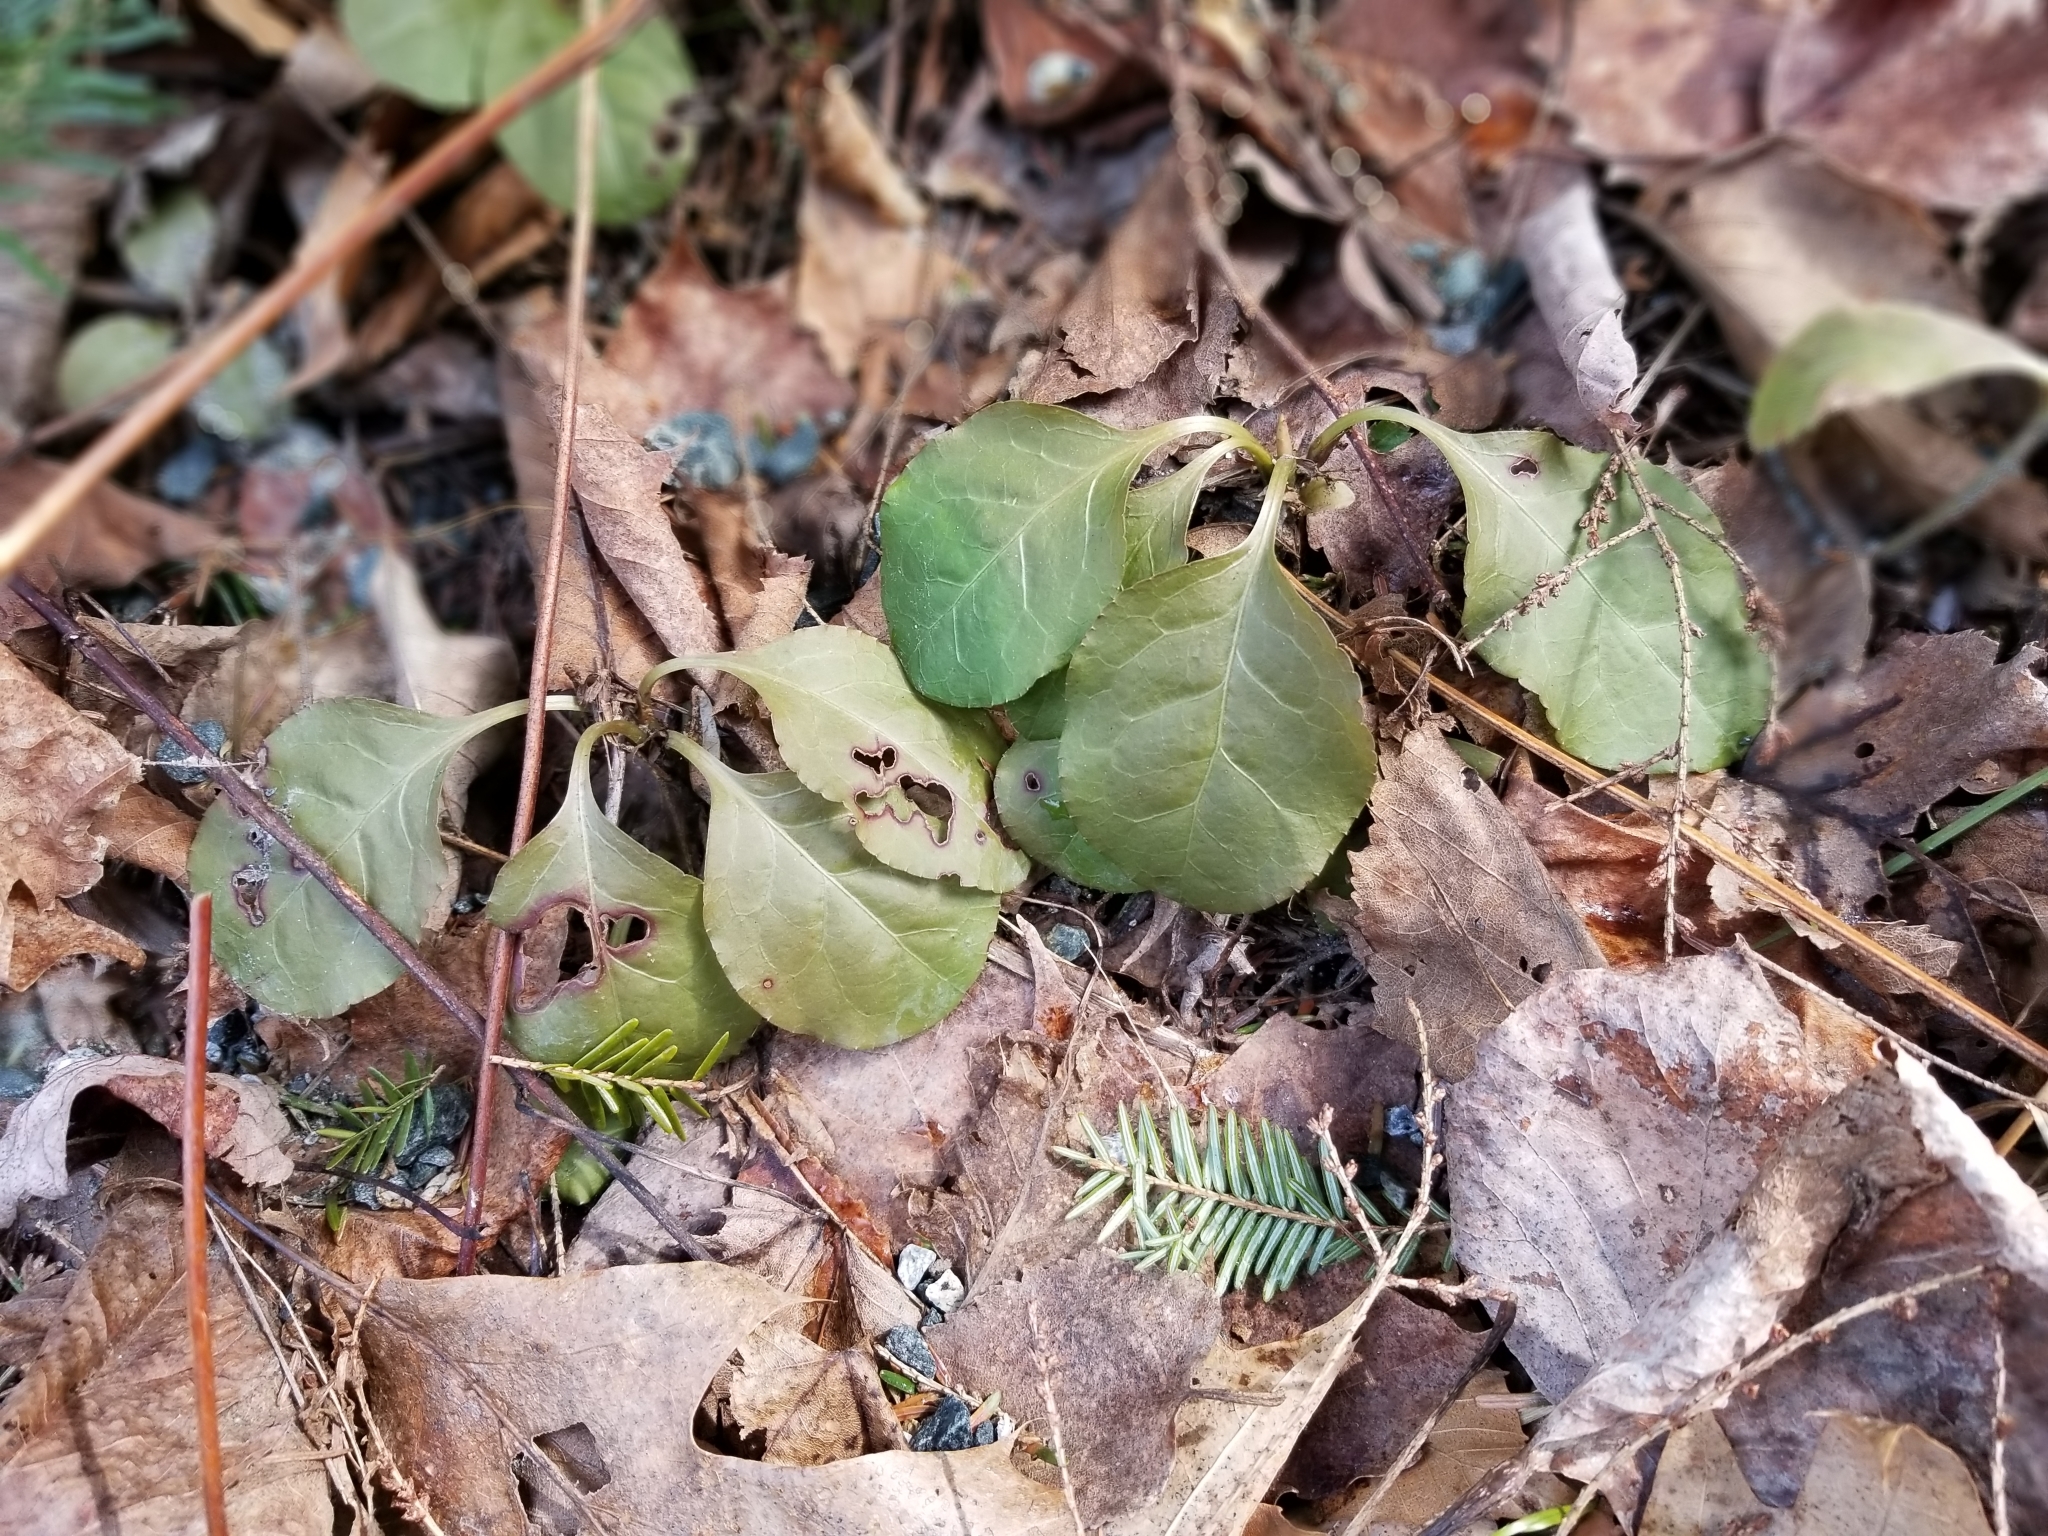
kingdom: Plantae
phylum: Tracheophyta
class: Magnoliopsida
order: Ericales
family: Ericaceae
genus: Pyrola
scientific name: Pyrola elliptica
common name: Shinleaf
